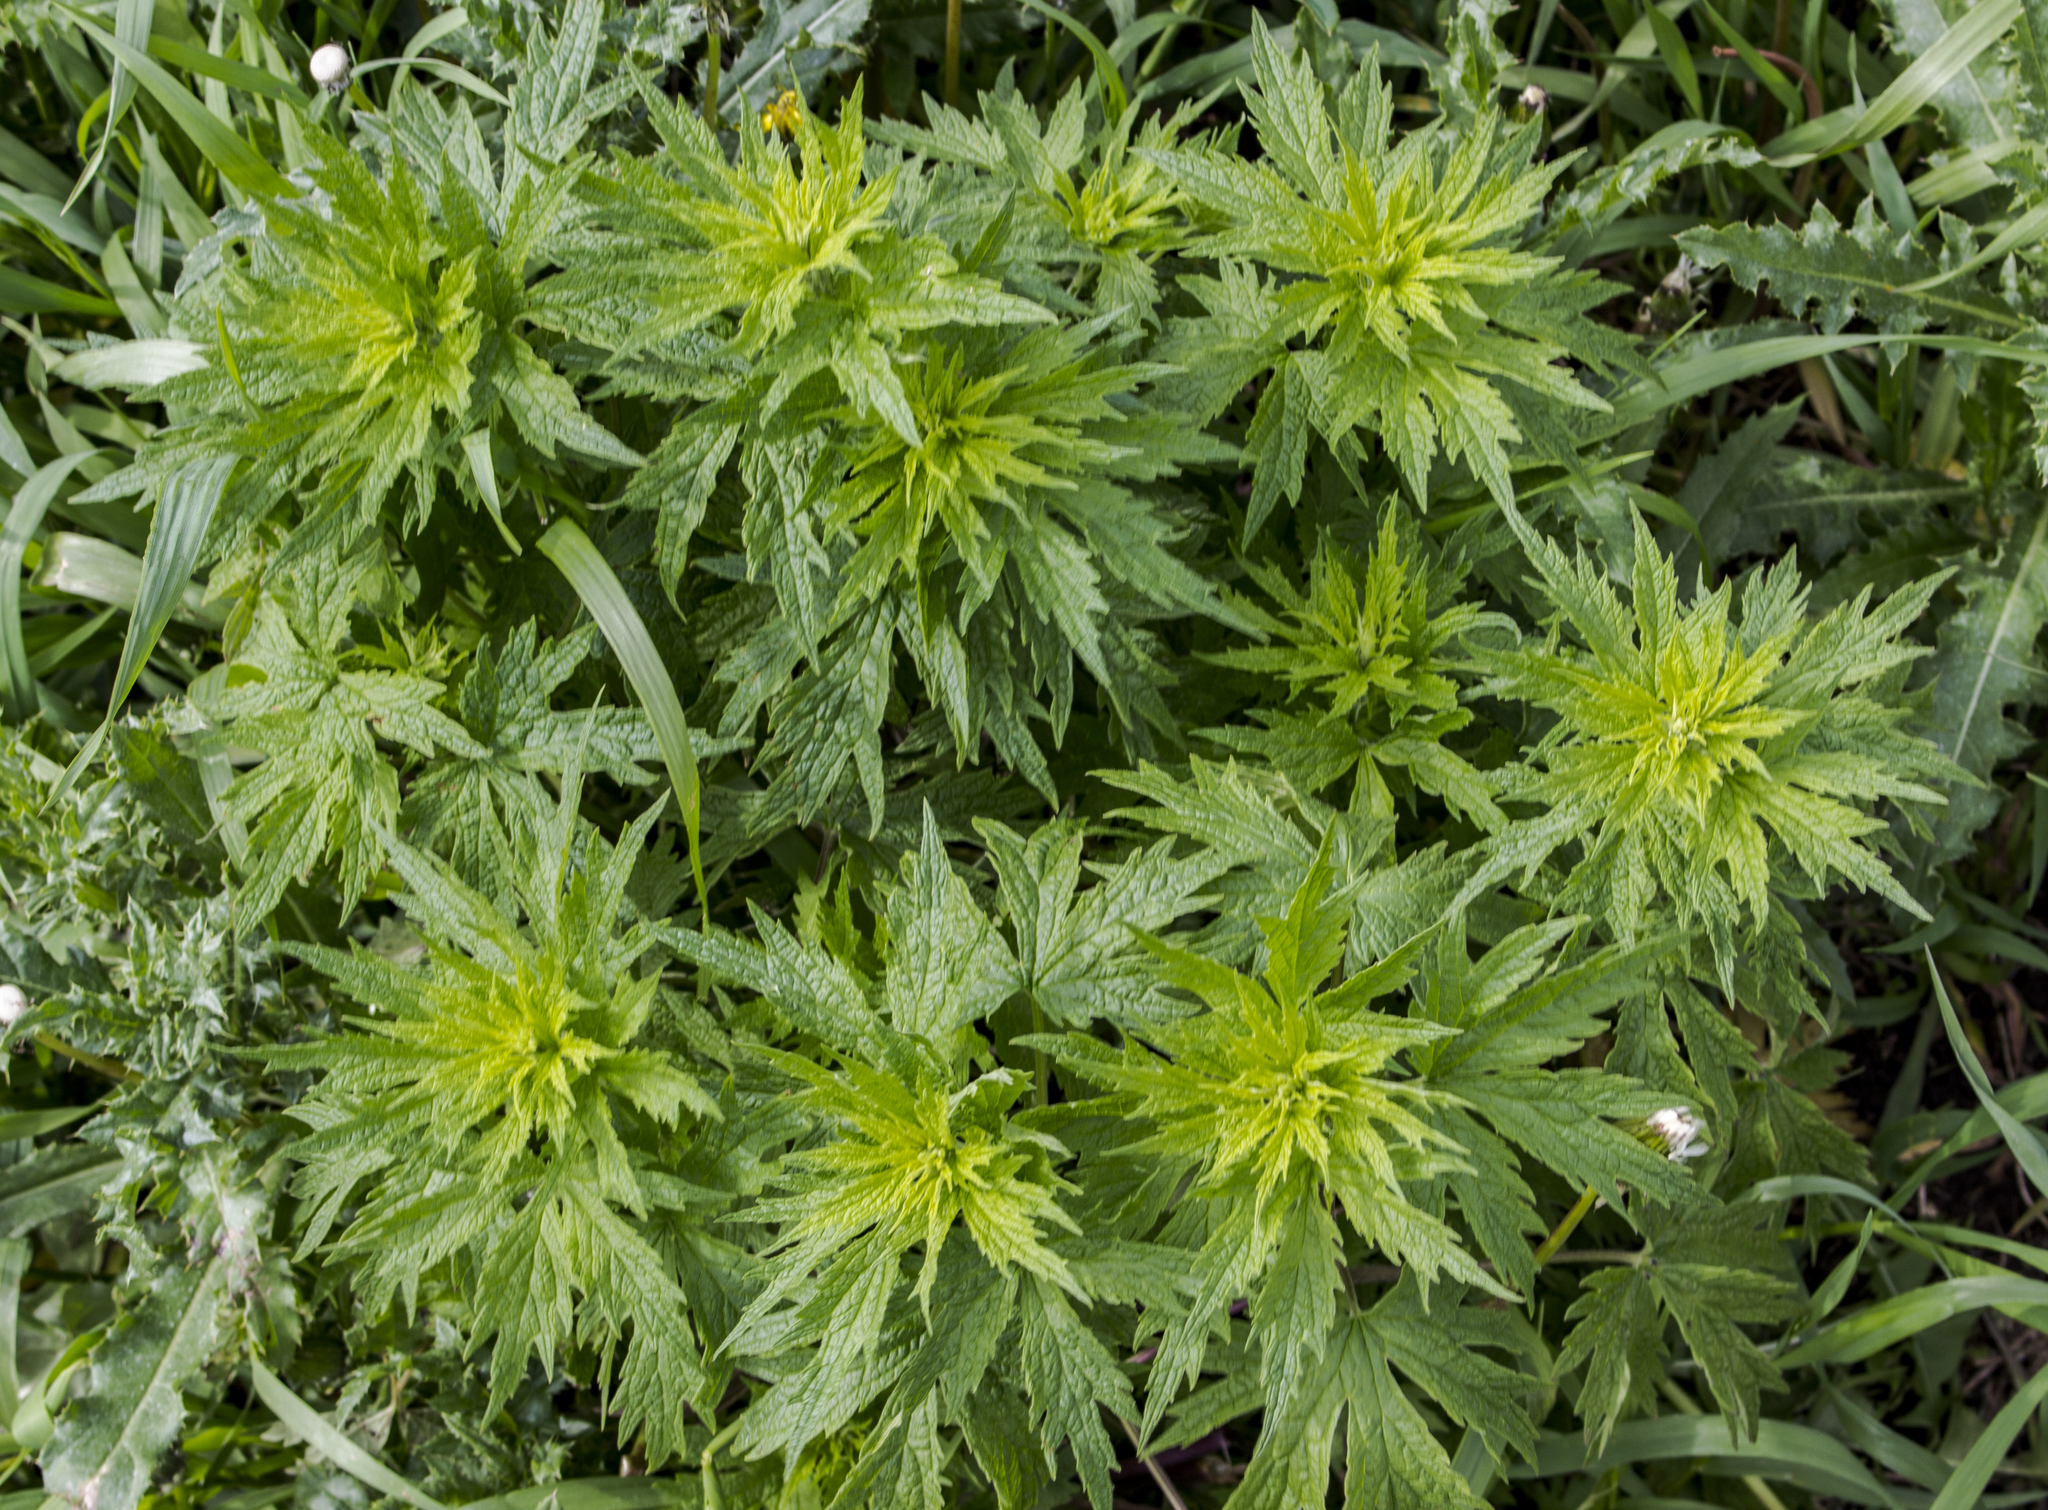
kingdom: Plantae
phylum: Tracheophyta
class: Magnoliopsida
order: Lamiales
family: Lamiaceae
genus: Leonurus
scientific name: Leonurus cardiaca
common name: Motherwort
